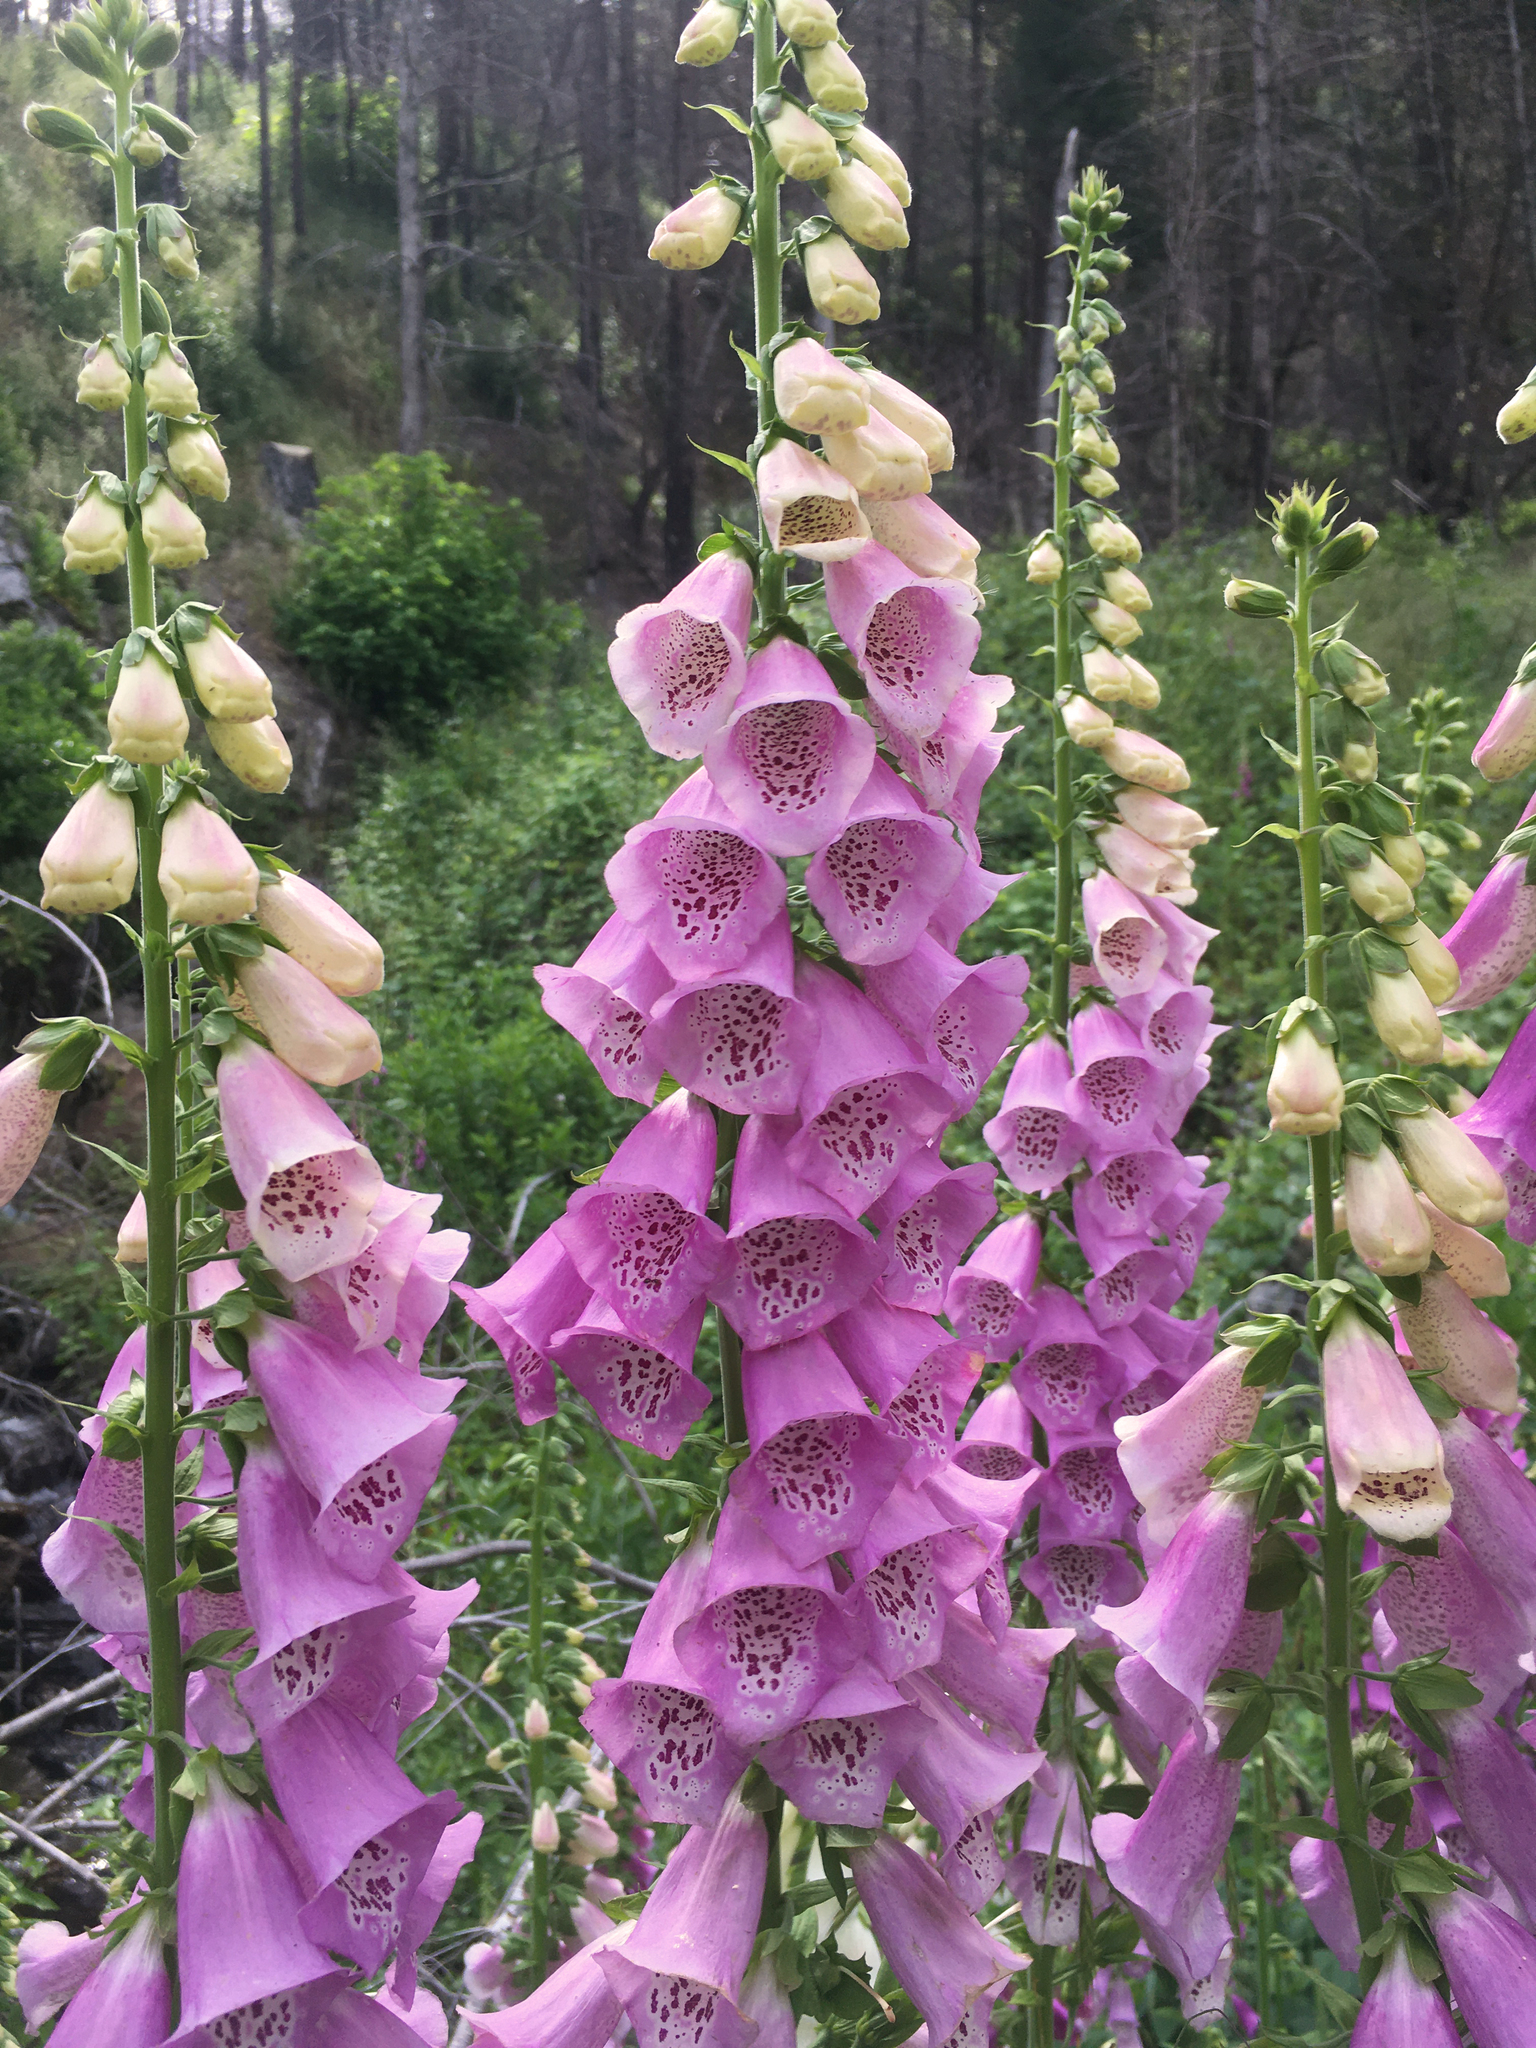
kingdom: Plantae
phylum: Tracheophyta
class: Magnoliopsida
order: Lamiales
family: Plantaginaceae
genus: Digitalis
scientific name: Digitalis purpurea
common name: Foxglove
